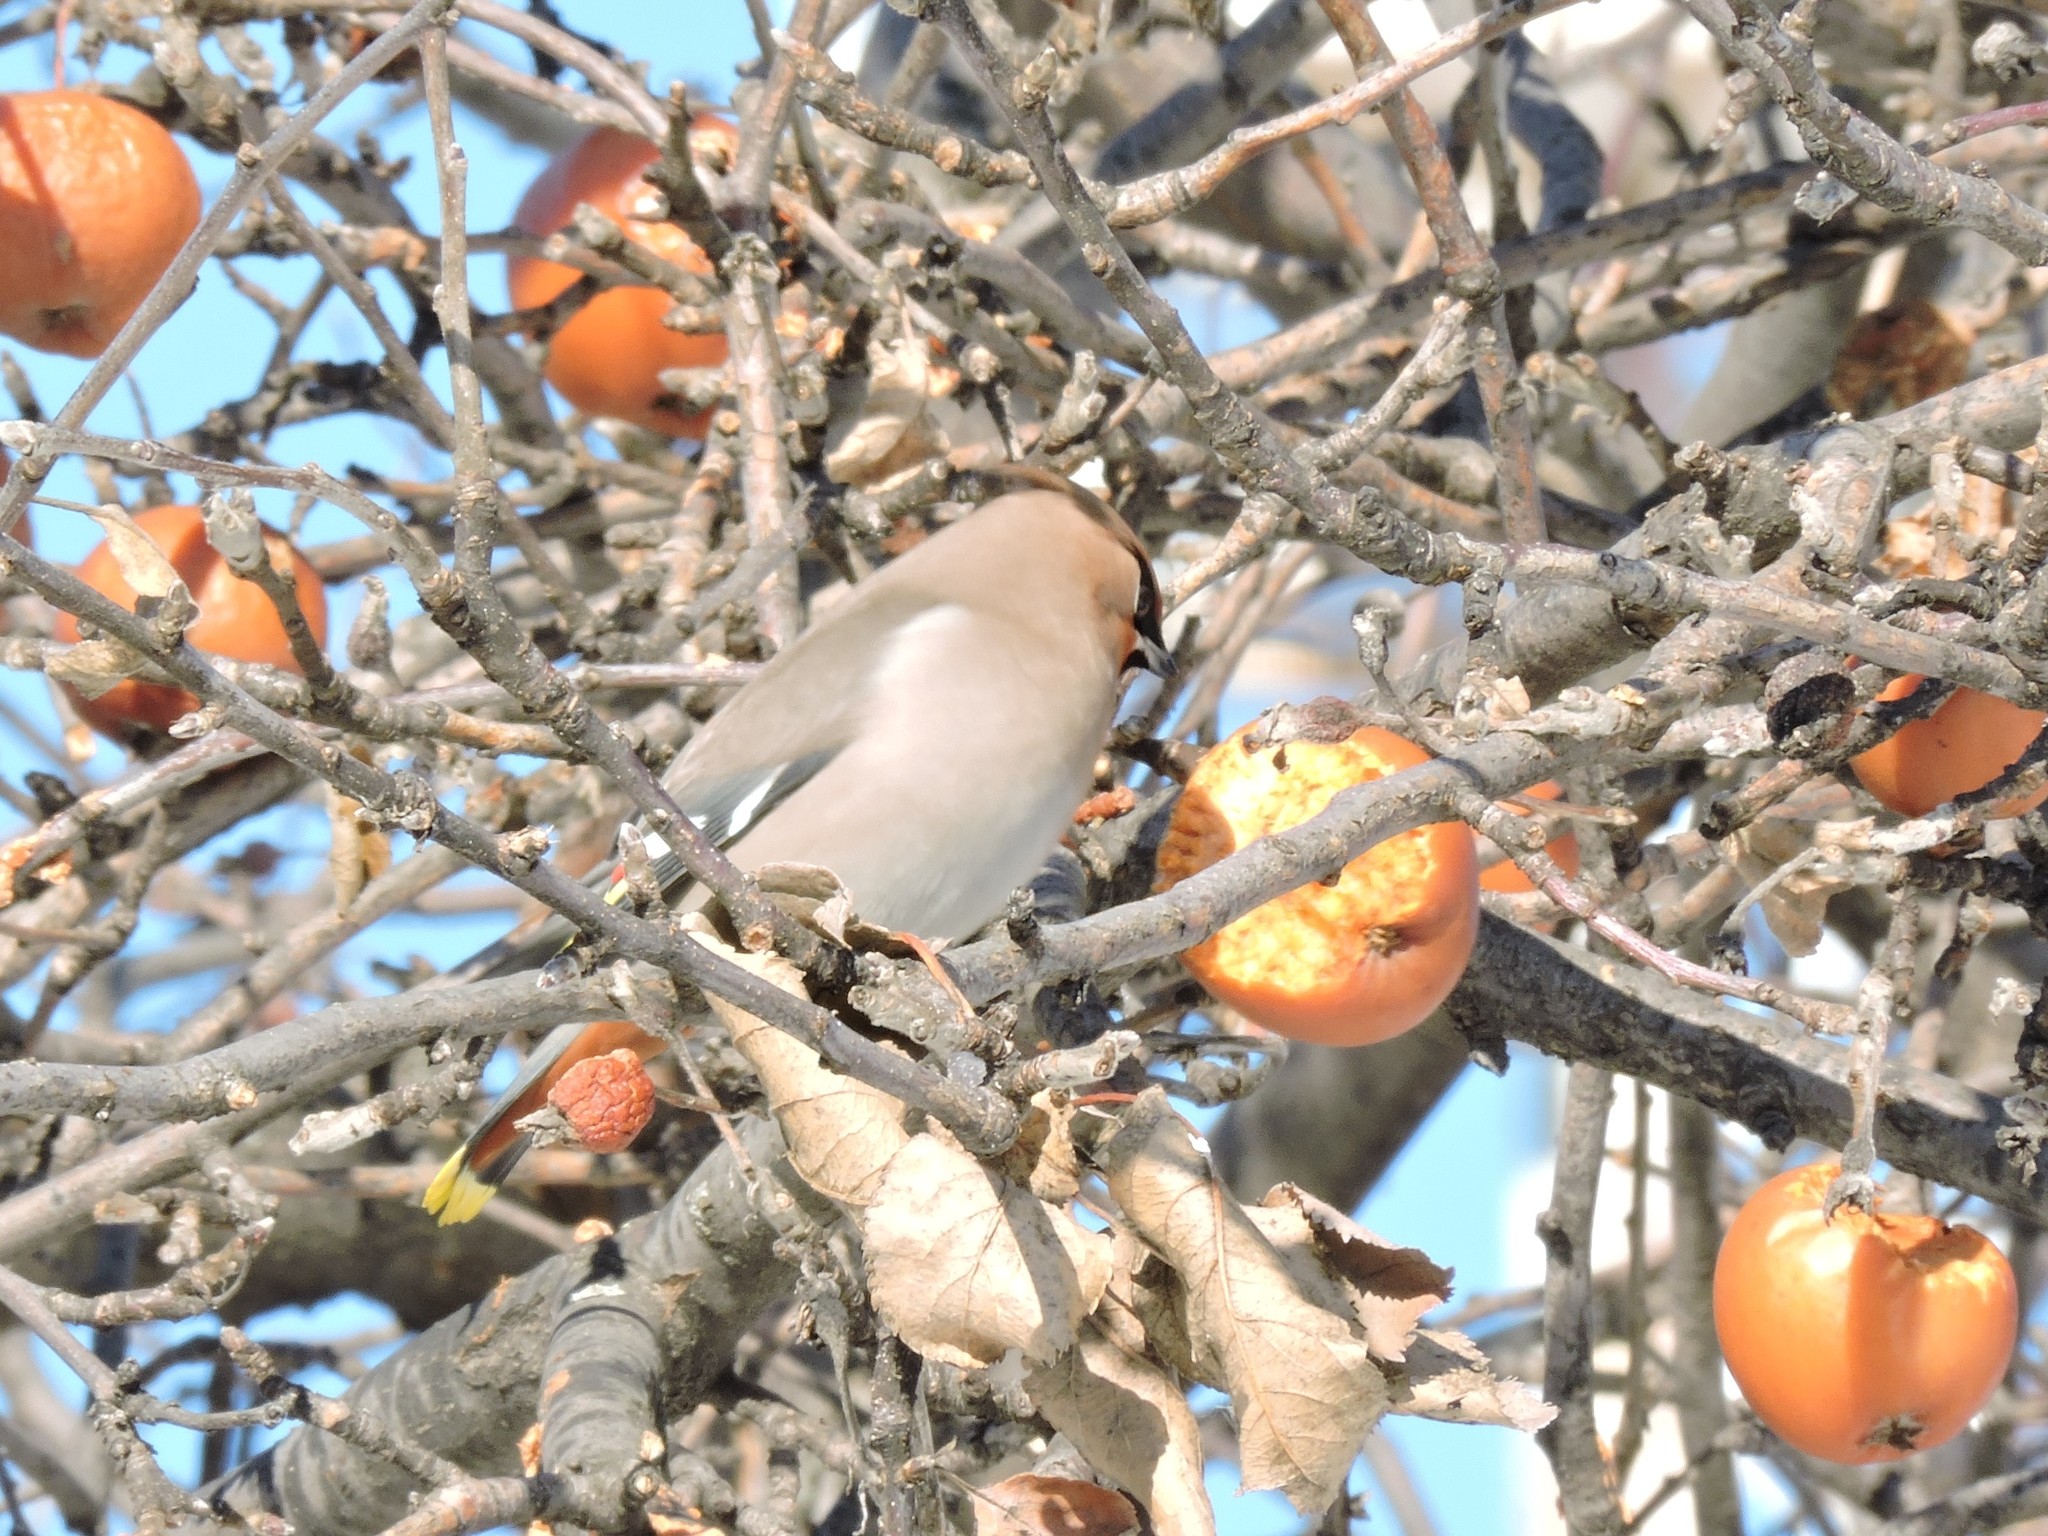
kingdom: Animalia
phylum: Chordata
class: Aves
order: Passeriformes
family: Bombycillidae
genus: Bombycilla
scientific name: Bombycilla garrulus
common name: Bohemian waxwing
